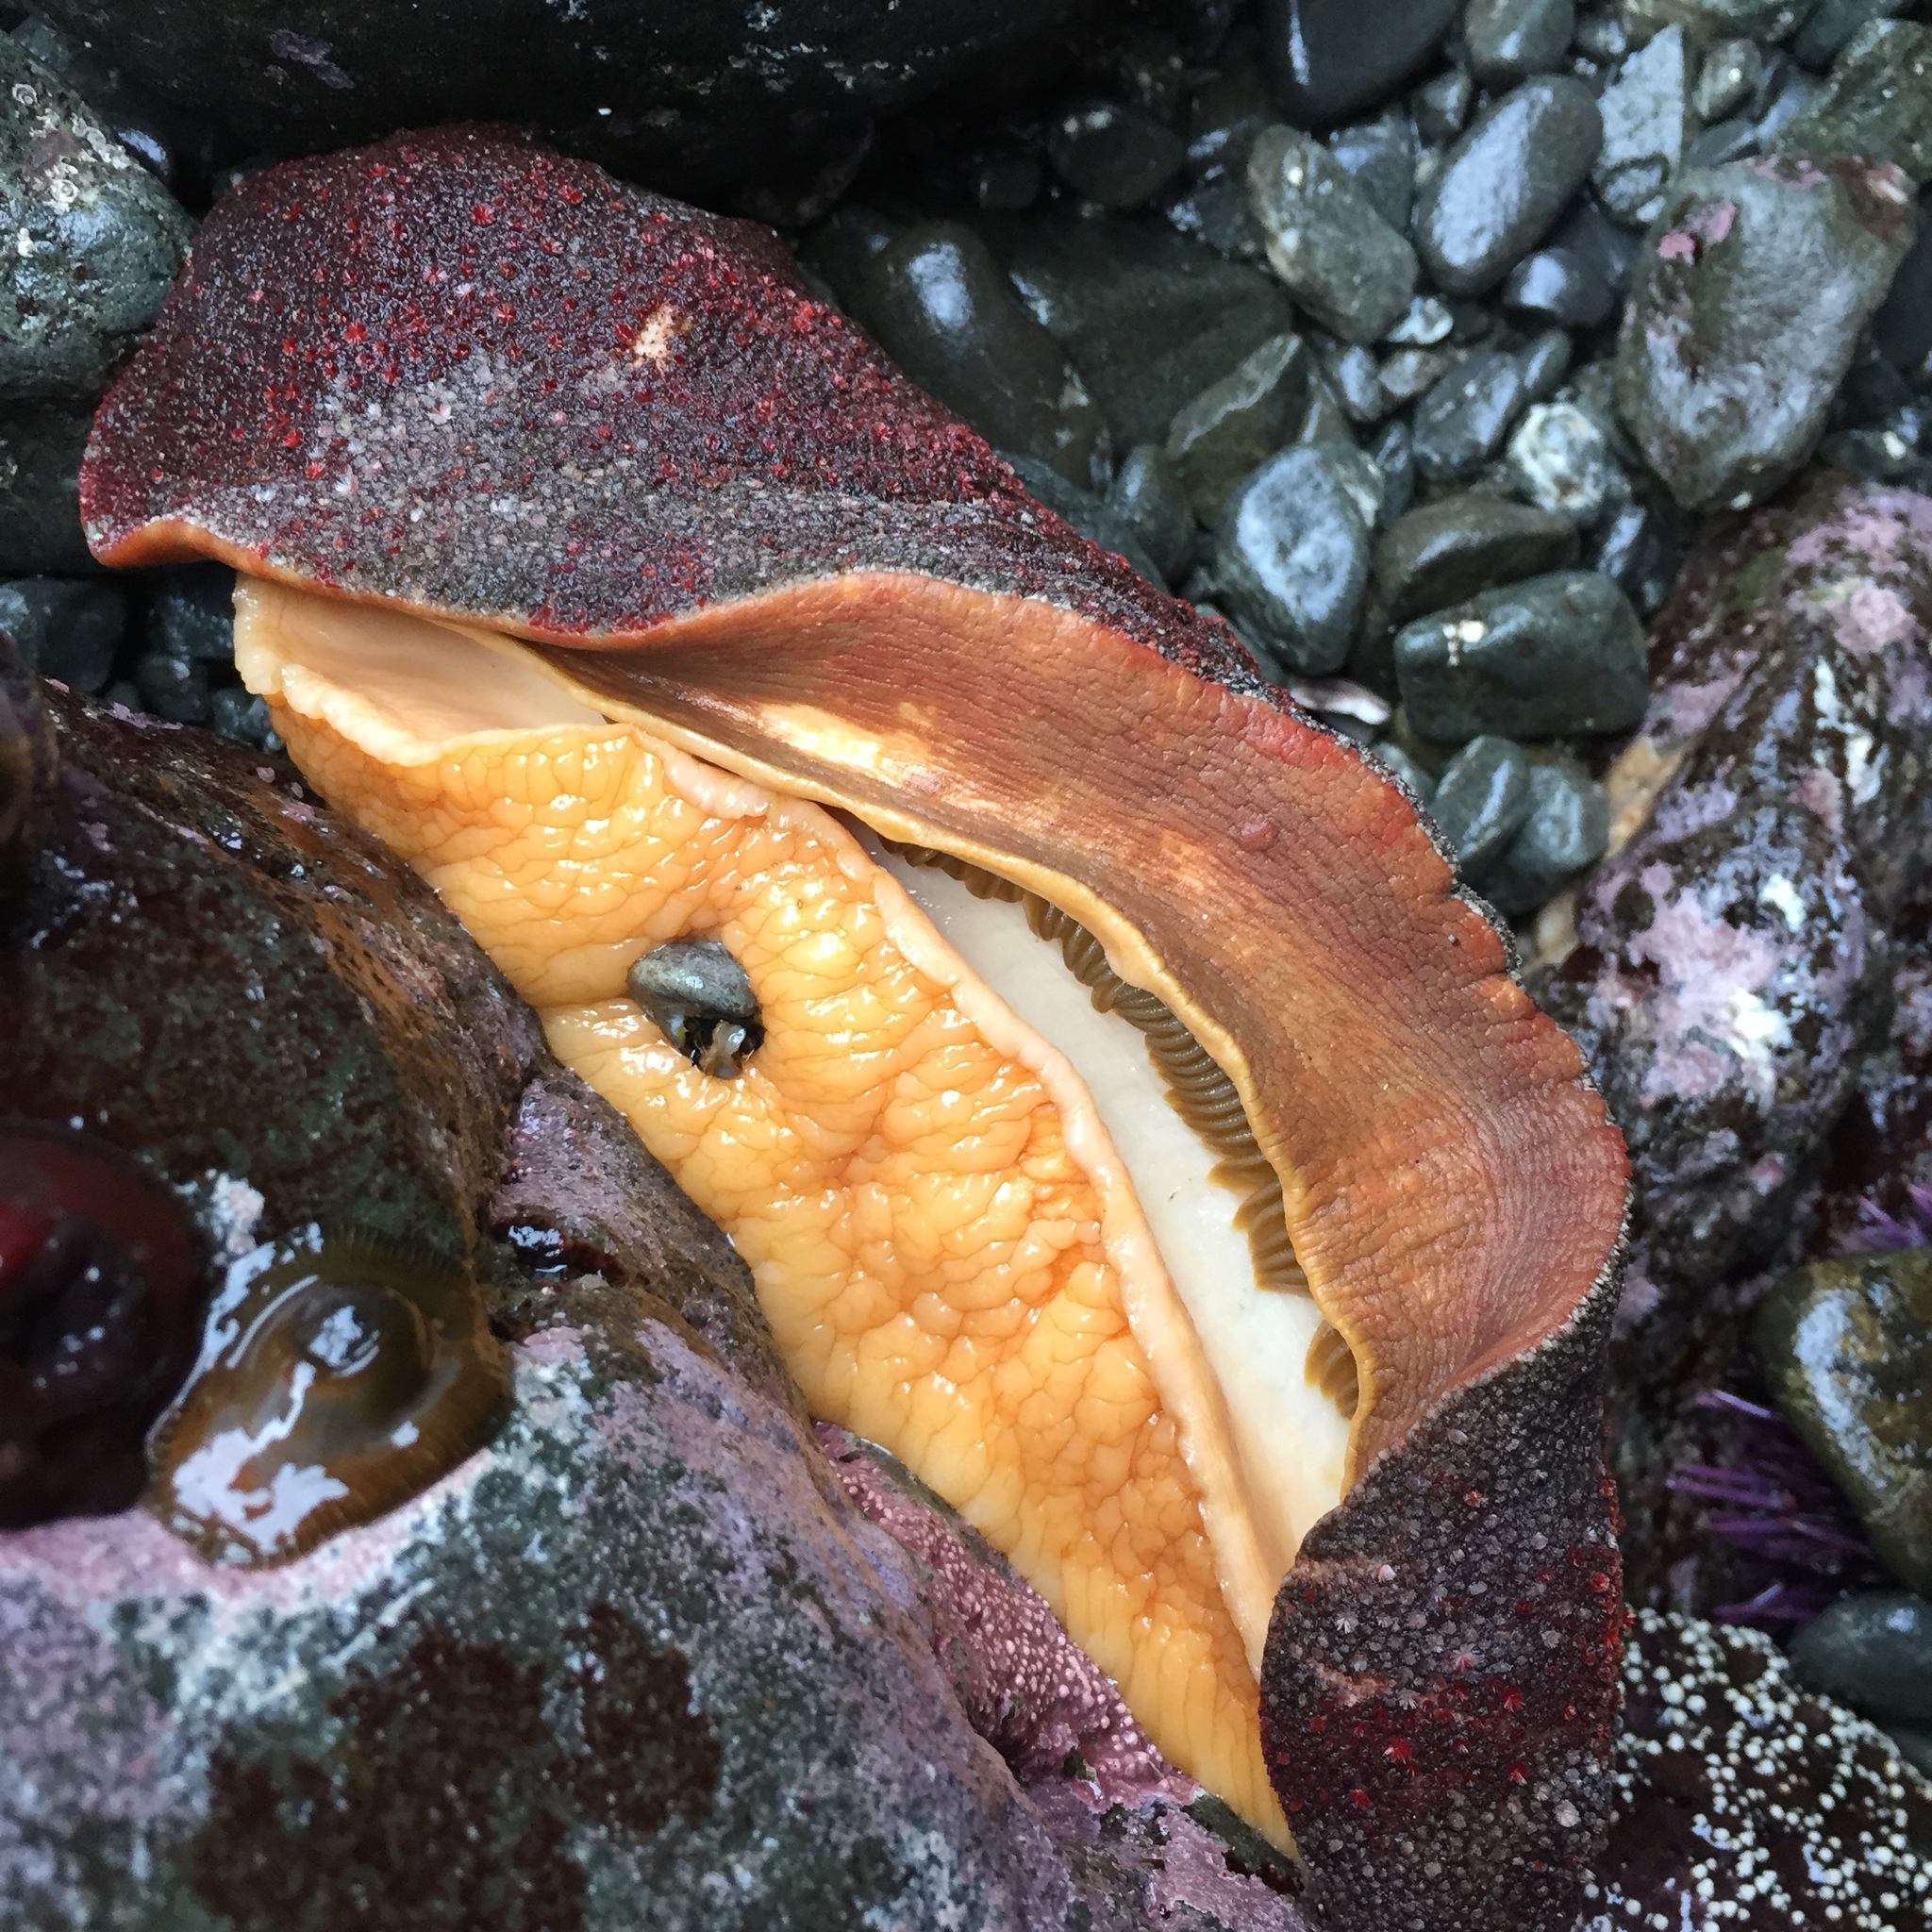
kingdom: Animalia
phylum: Mollusca
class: Polyplacophora
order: Chitonida
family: Acanthochitonidae
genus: Cryptochiton
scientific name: Cryptochiton stelleri
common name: Giant pacific chiton
